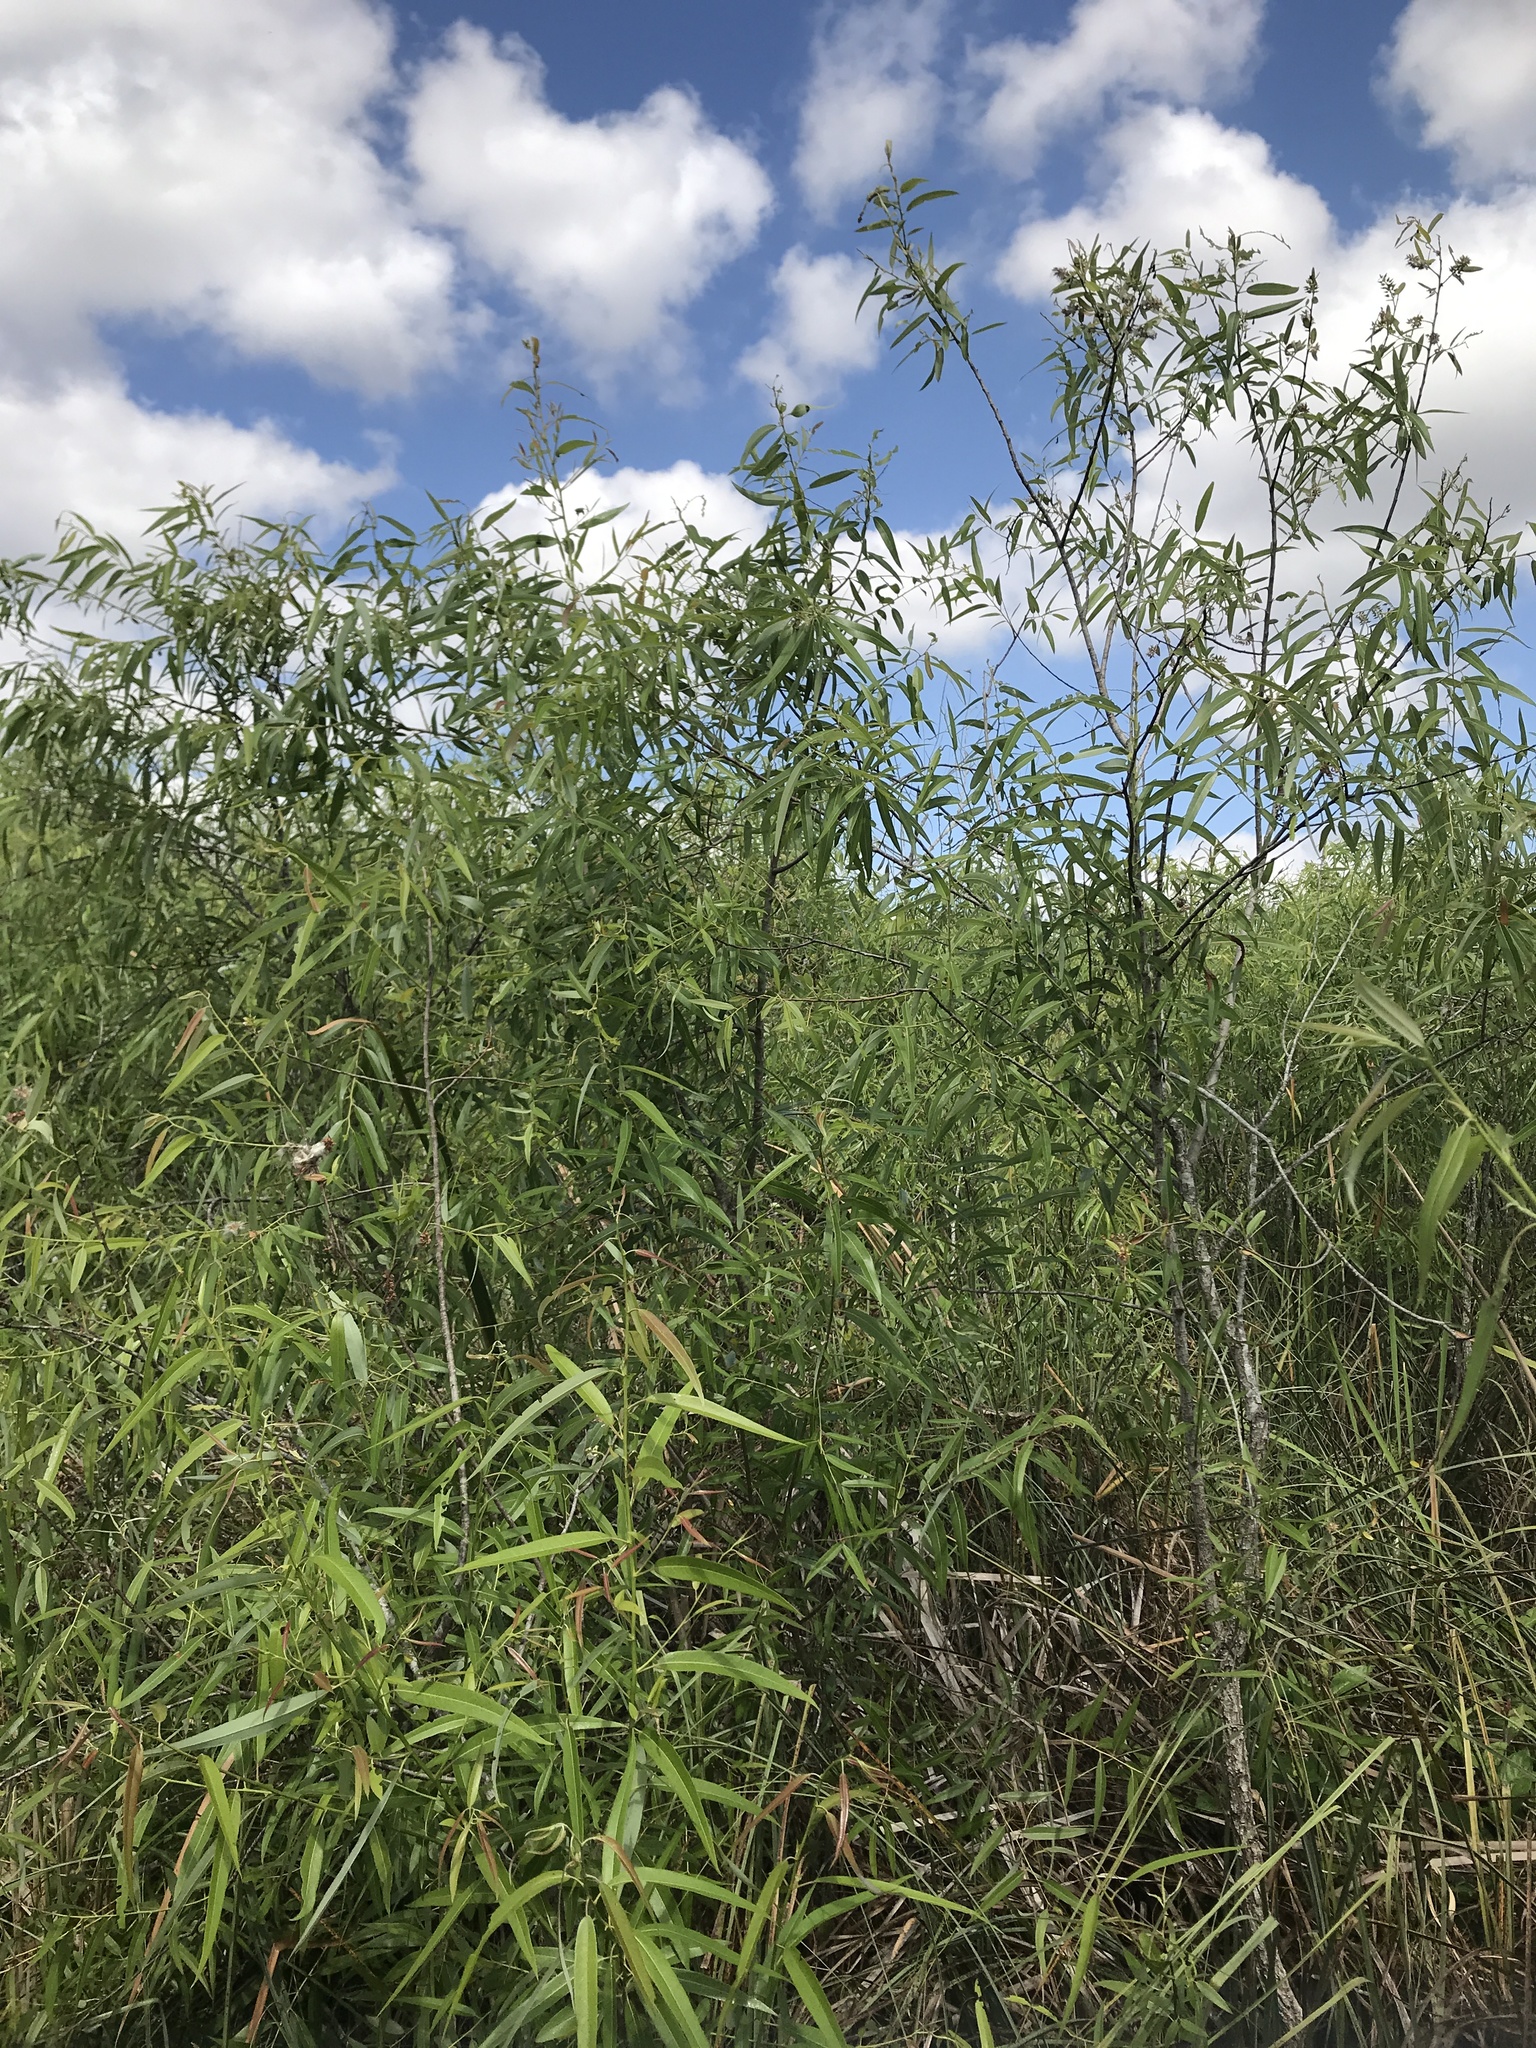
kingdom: Plantae
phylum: Tracheophyta
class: Magnoliopsida
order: Malpighiales
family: Salicaceae
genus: Salix
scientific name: Salix caroliniana
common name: Carolina willow
